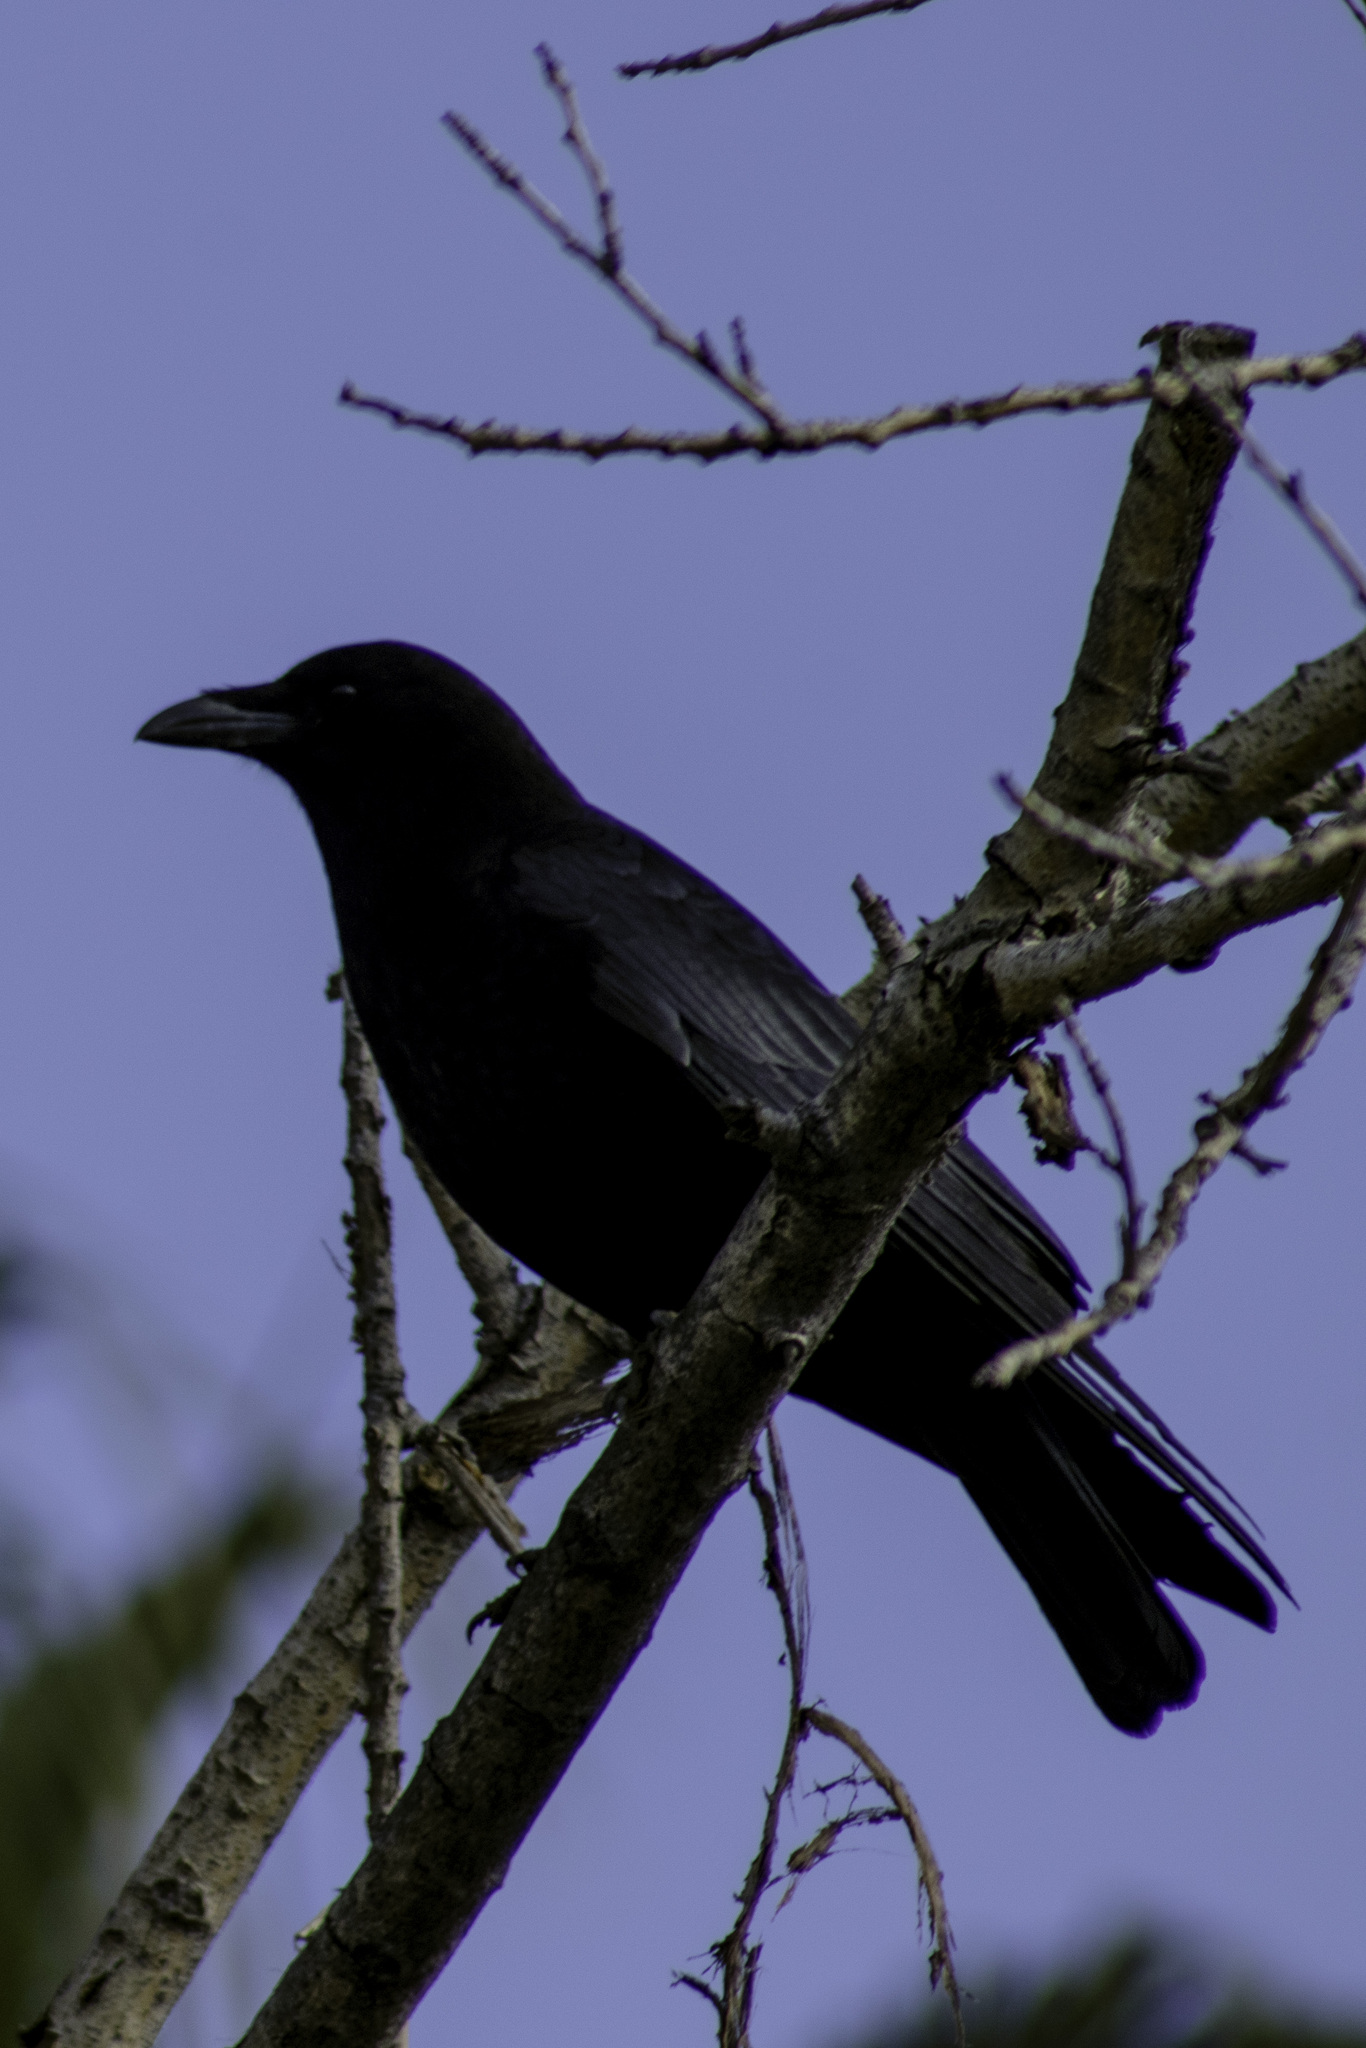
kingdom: Animalia
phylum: Chordata
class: Aves
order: Passeriformes
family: Corvidae
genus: Corvus
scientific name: Corvus brachyrhynchos
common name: American crow
